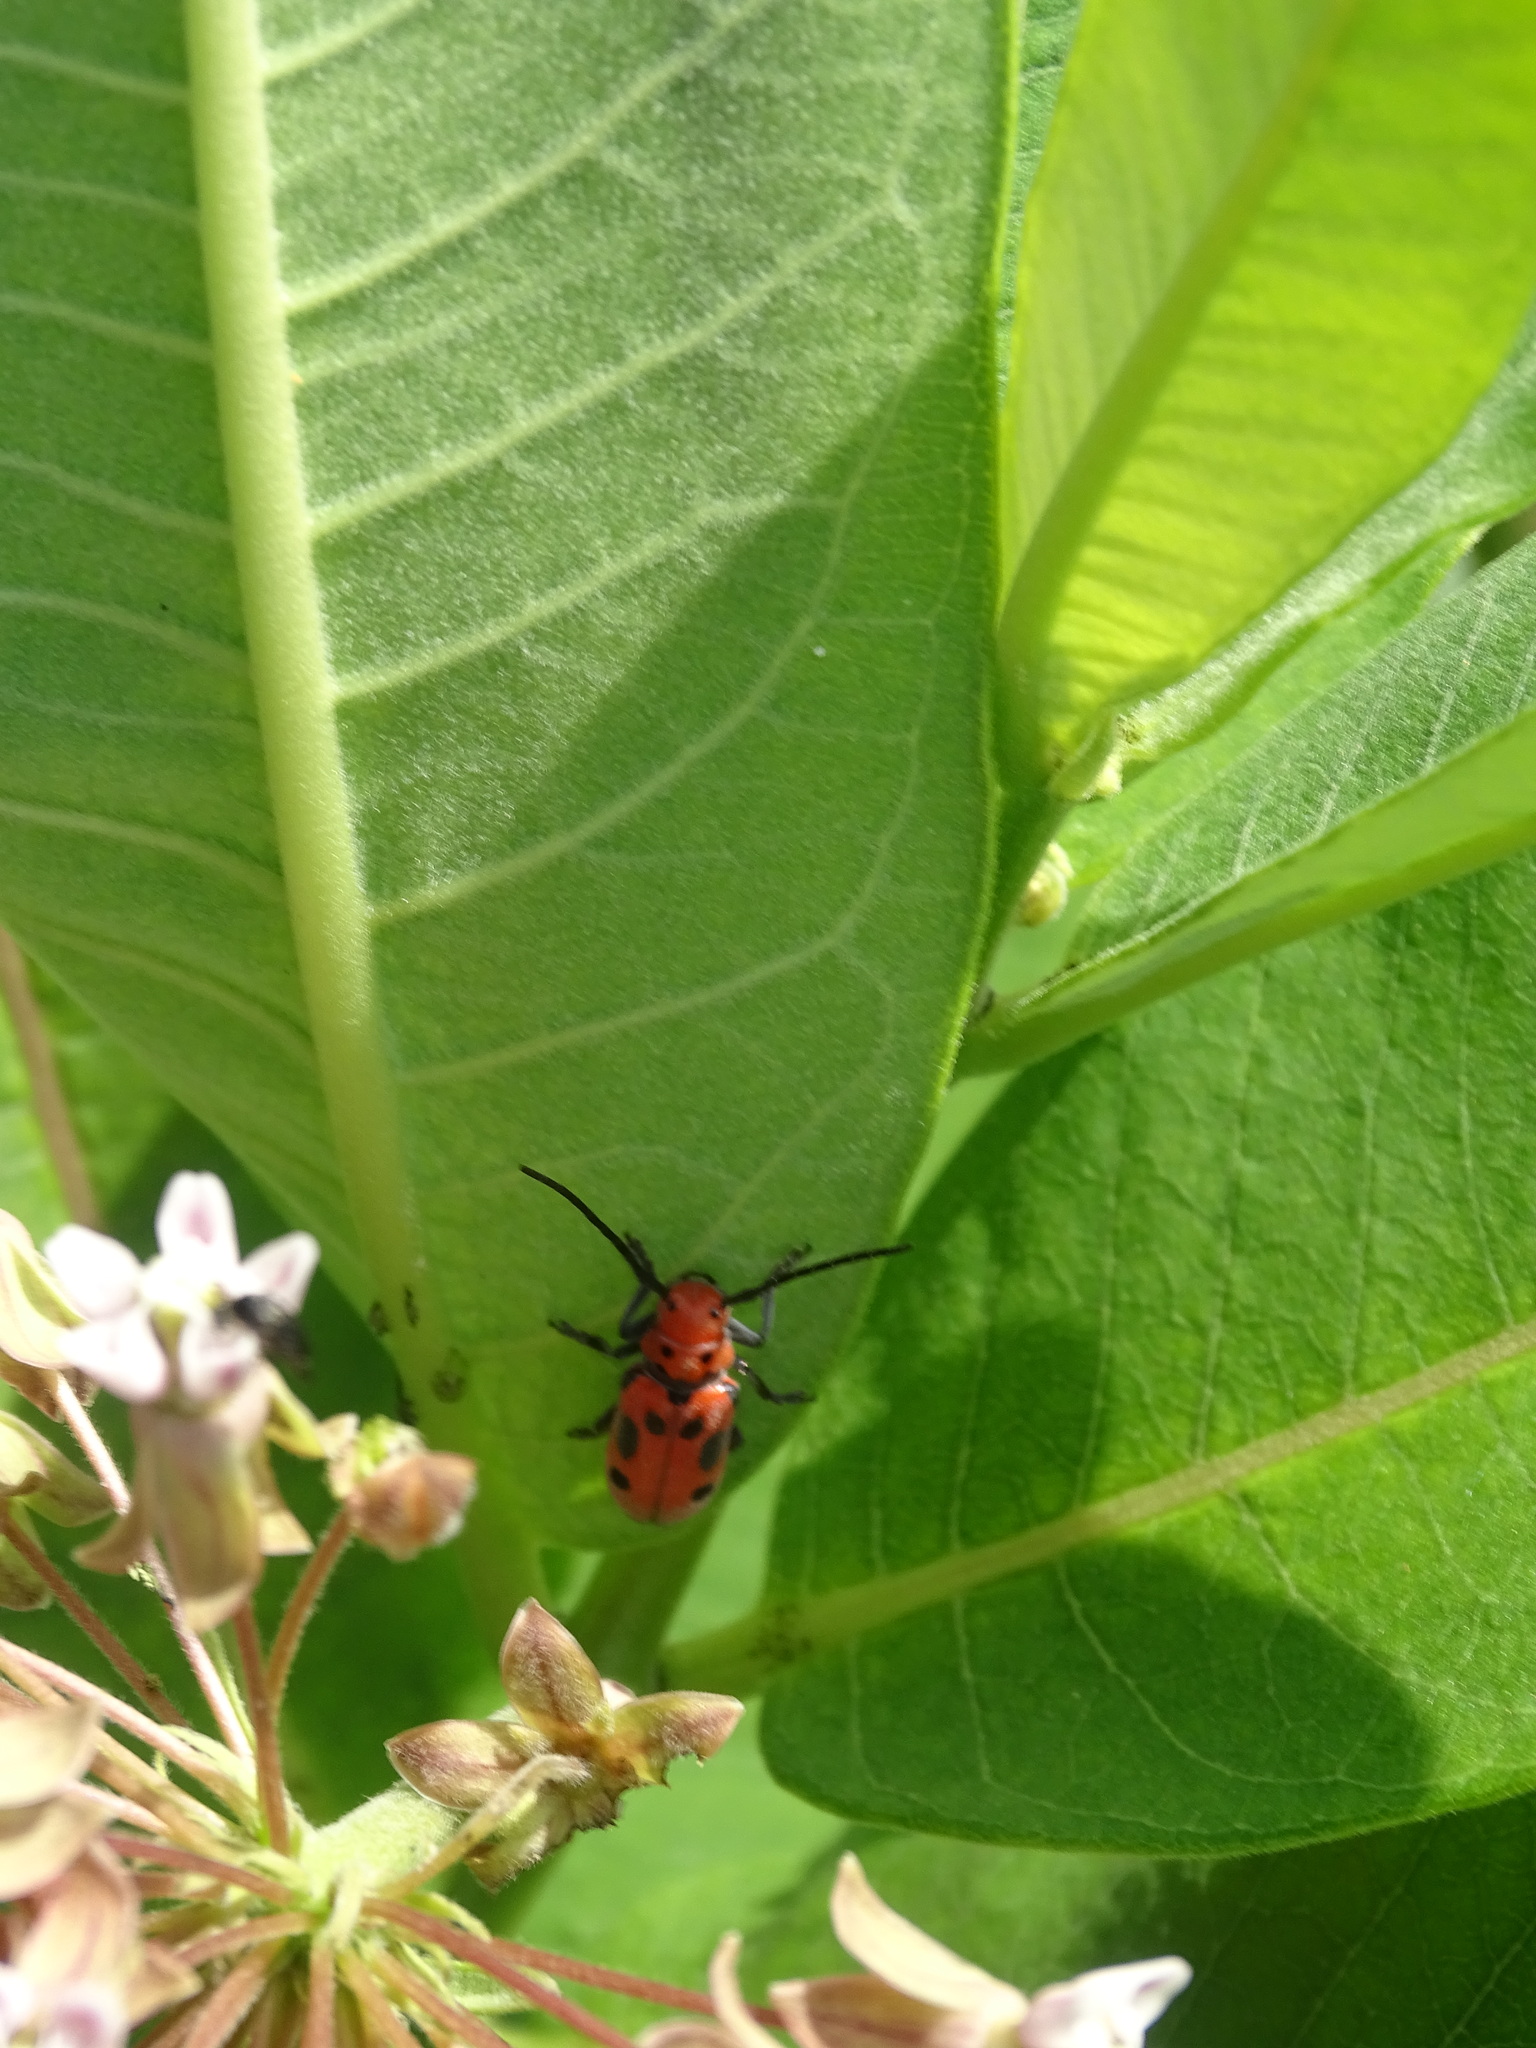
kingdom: Animalia
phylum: Arthropoda
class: Insecta
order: Coleoptera
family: Cerambycidae
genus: Tetraopes
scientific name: Tetraopes tetrophthalmus
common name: Red milkweed beetle
